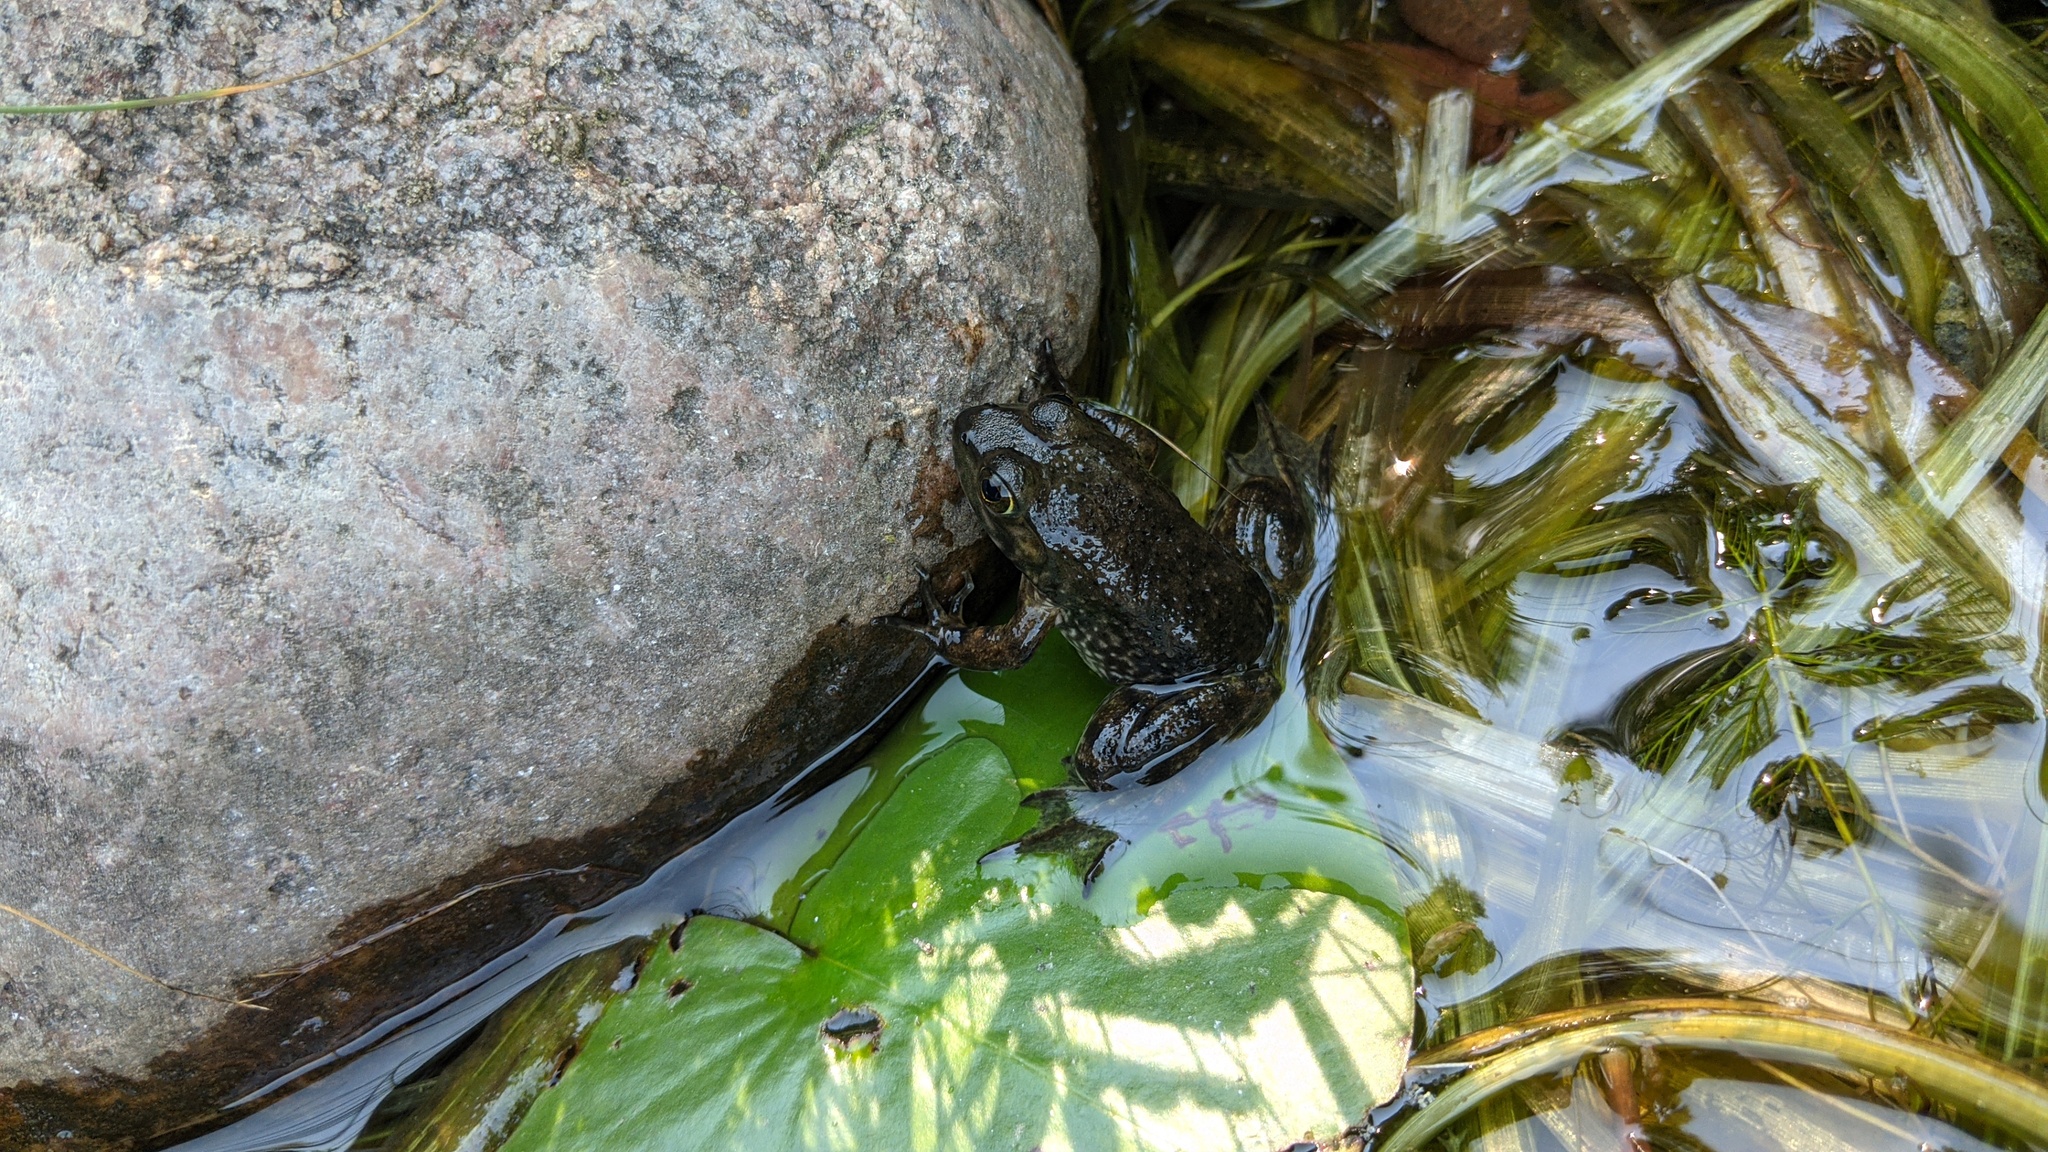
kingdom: Animalia
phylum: Chordata
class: Amphibia
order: Anura
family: Ranidae
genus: Lithobates
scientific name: Lithobates catesbeianus
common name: American bullfrog
